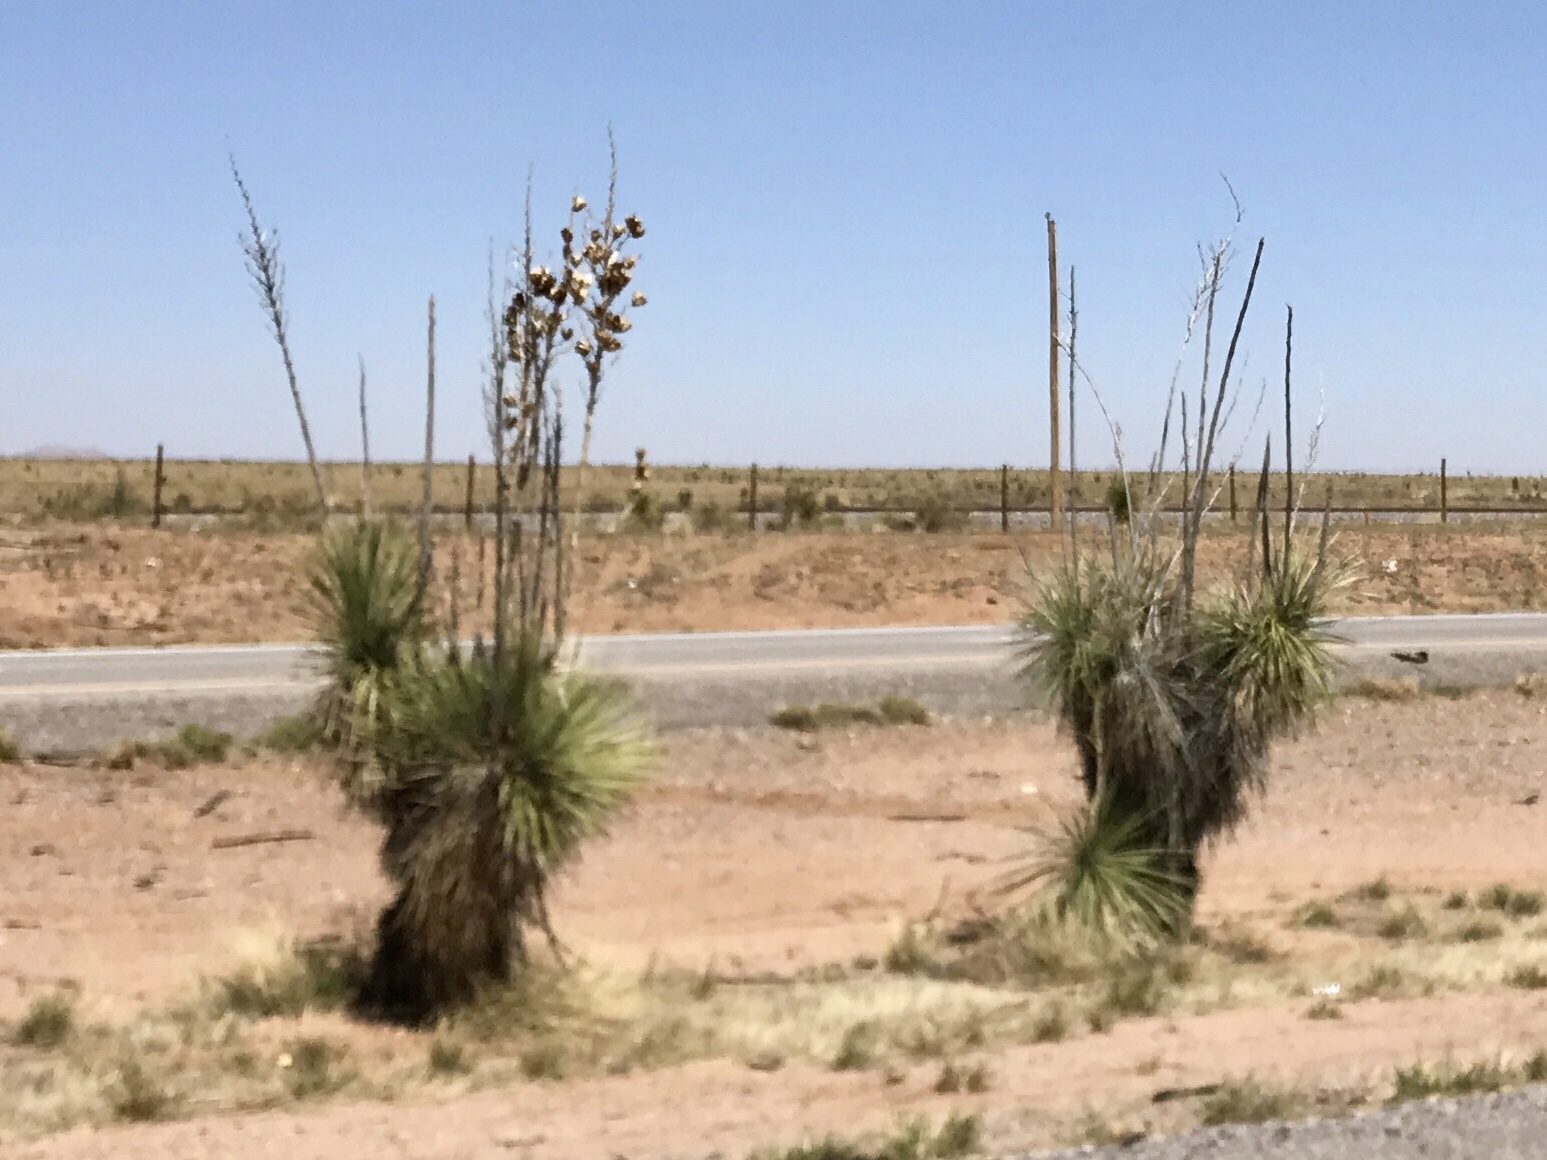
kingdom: Plantae
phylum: Tracheophyta
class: Liliopsida
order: Asparagales
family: Asparagaceae
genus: Yucca
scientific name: Yucca elata
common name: Palmella
